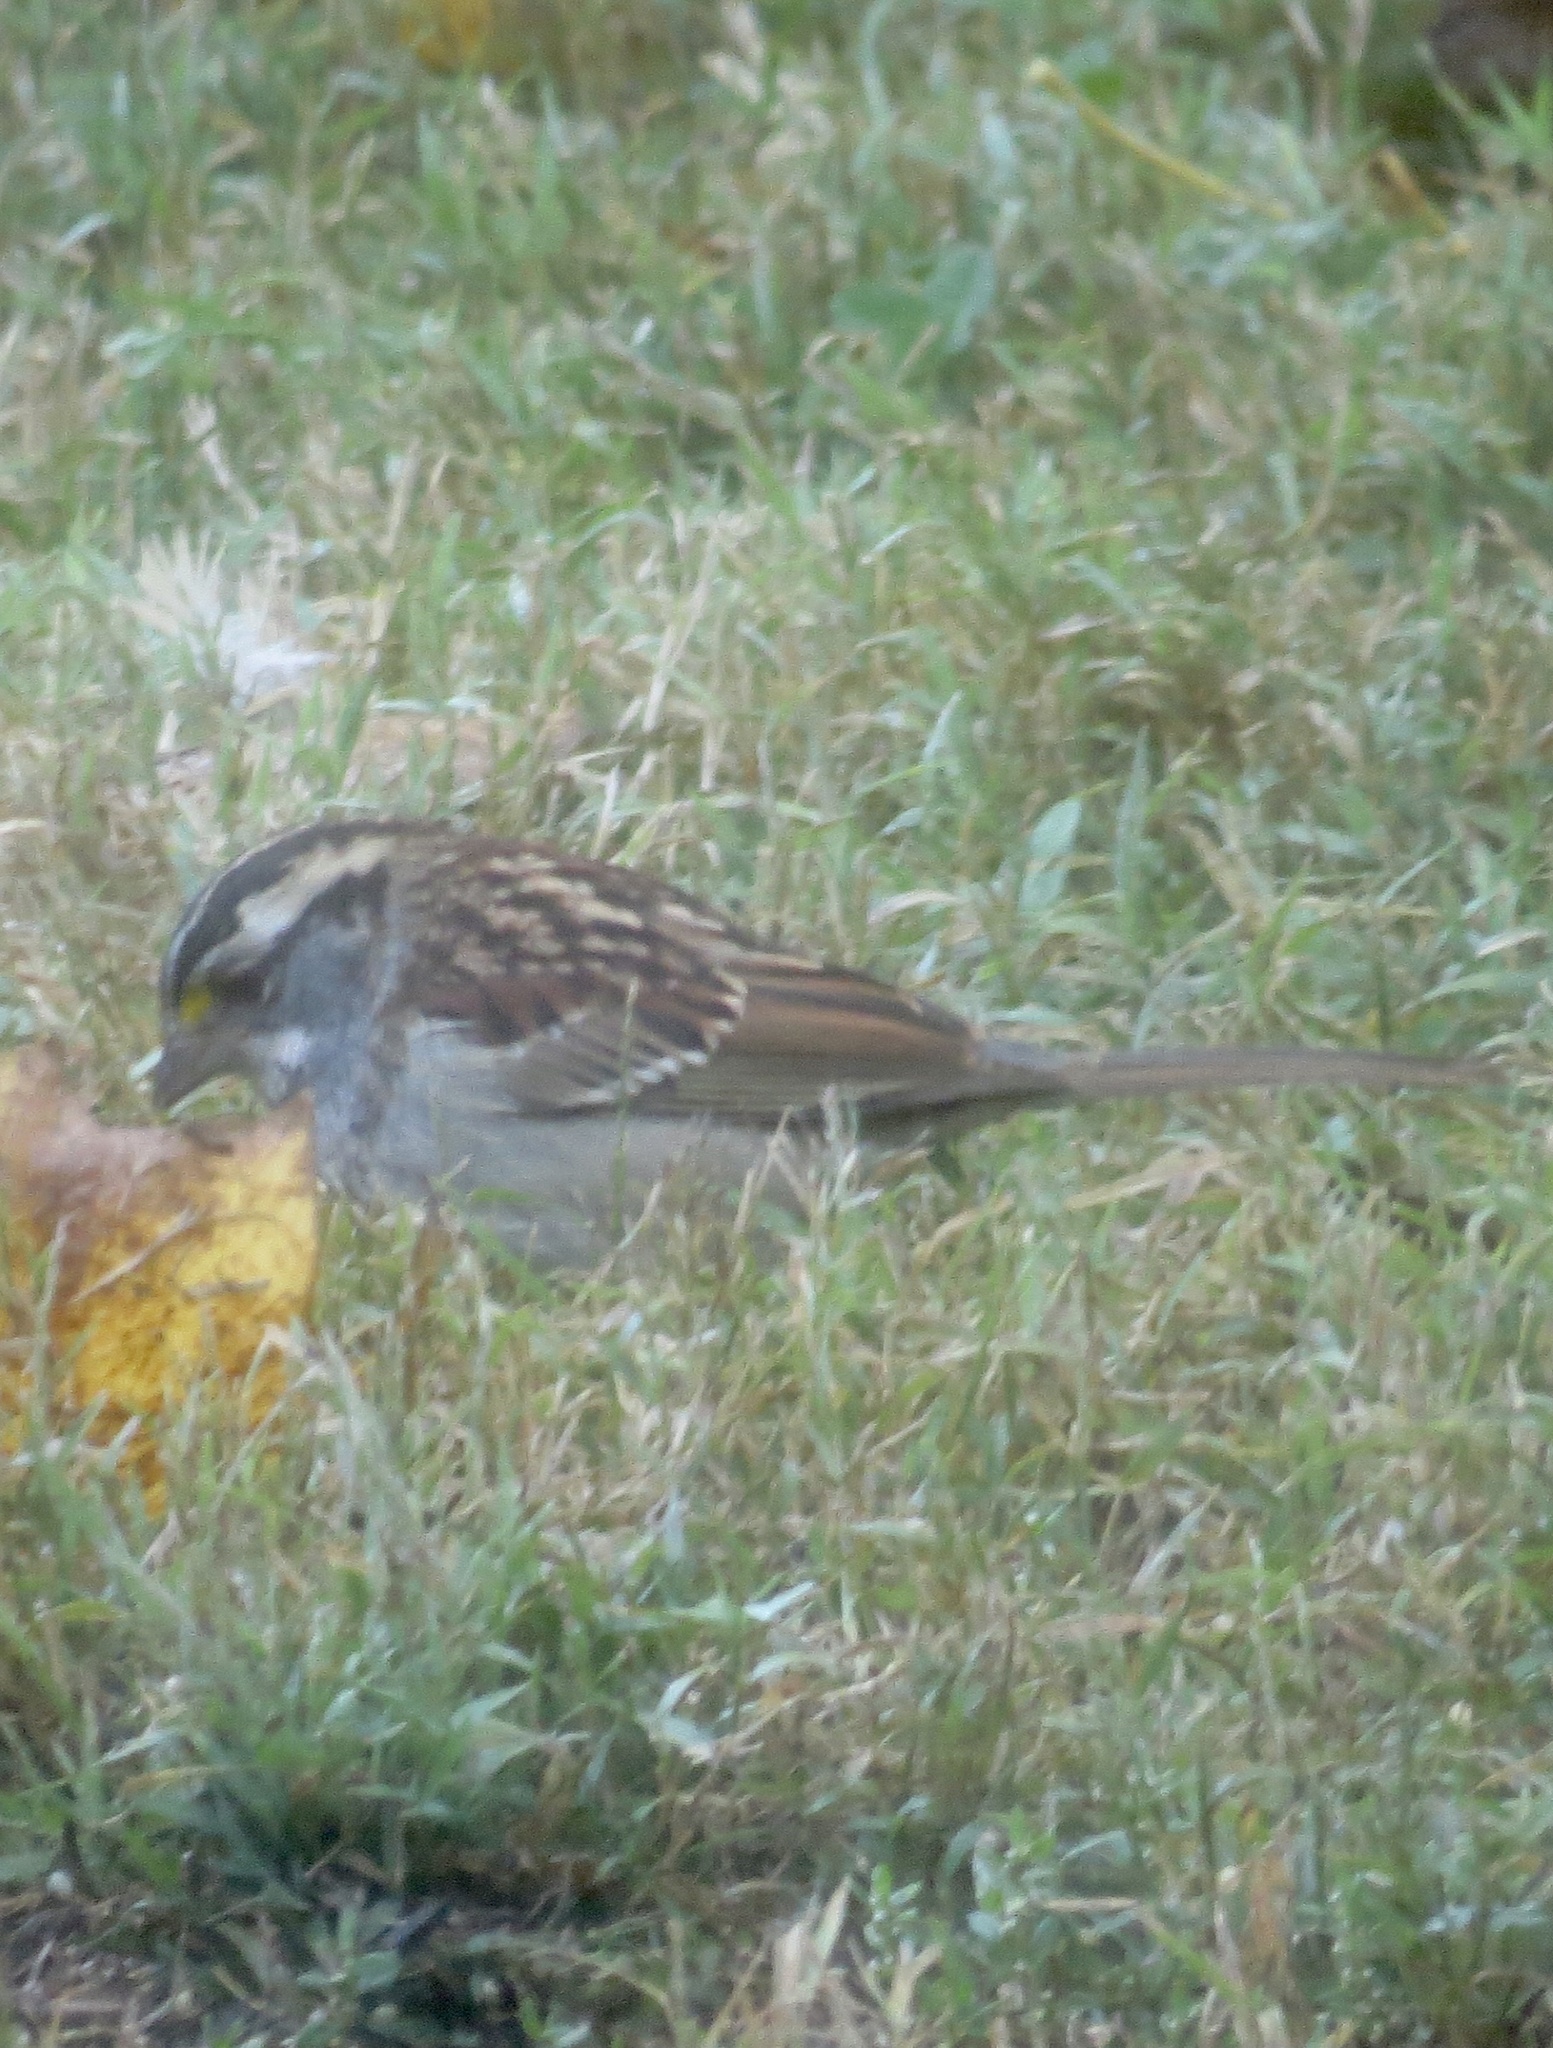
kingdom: Animalia
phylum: Chordata
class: Aves
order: Passeriformes
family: Passerellidae
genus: Zonotrichia
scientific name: Zonotrichia albicollis
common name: White-throated sparrow
